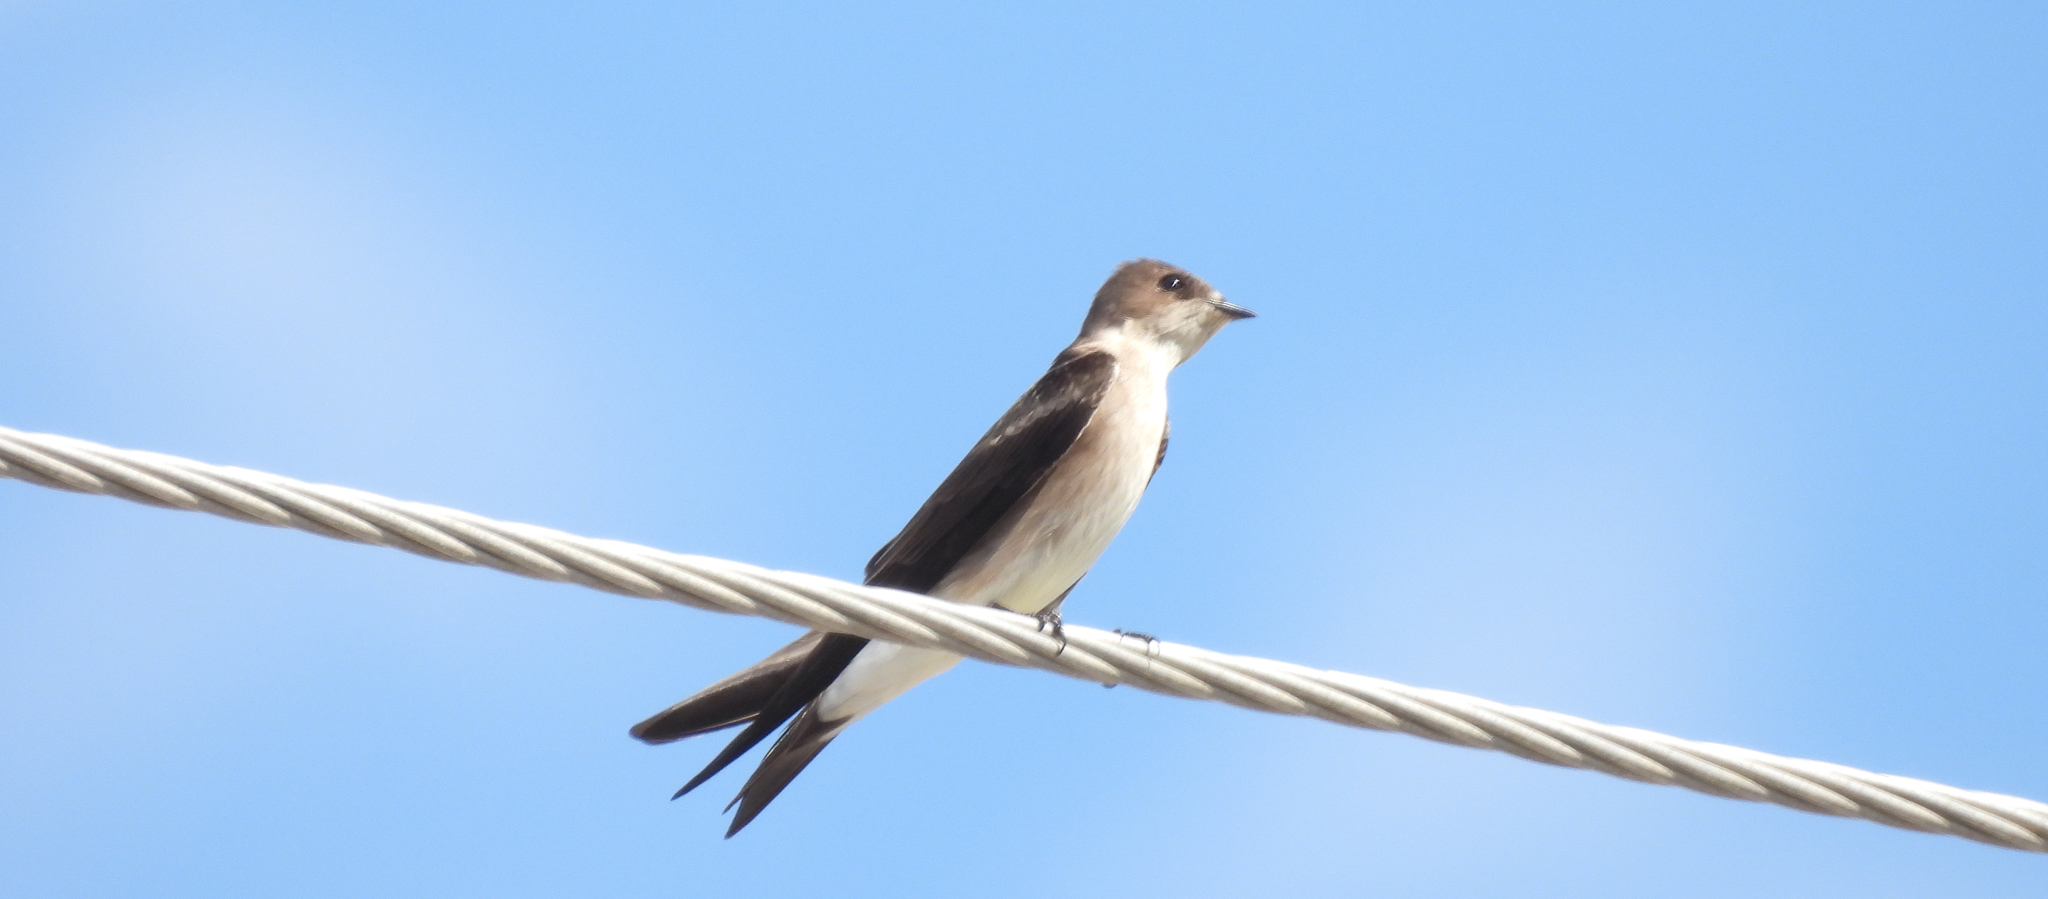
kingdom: Animalia
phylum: Chordata
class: Aves
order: Passeriformes
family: Hirundinidae
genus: Stelgidopteryx
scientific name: Stelgidopteryx serripennis
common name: Northern rough-winged swallow
